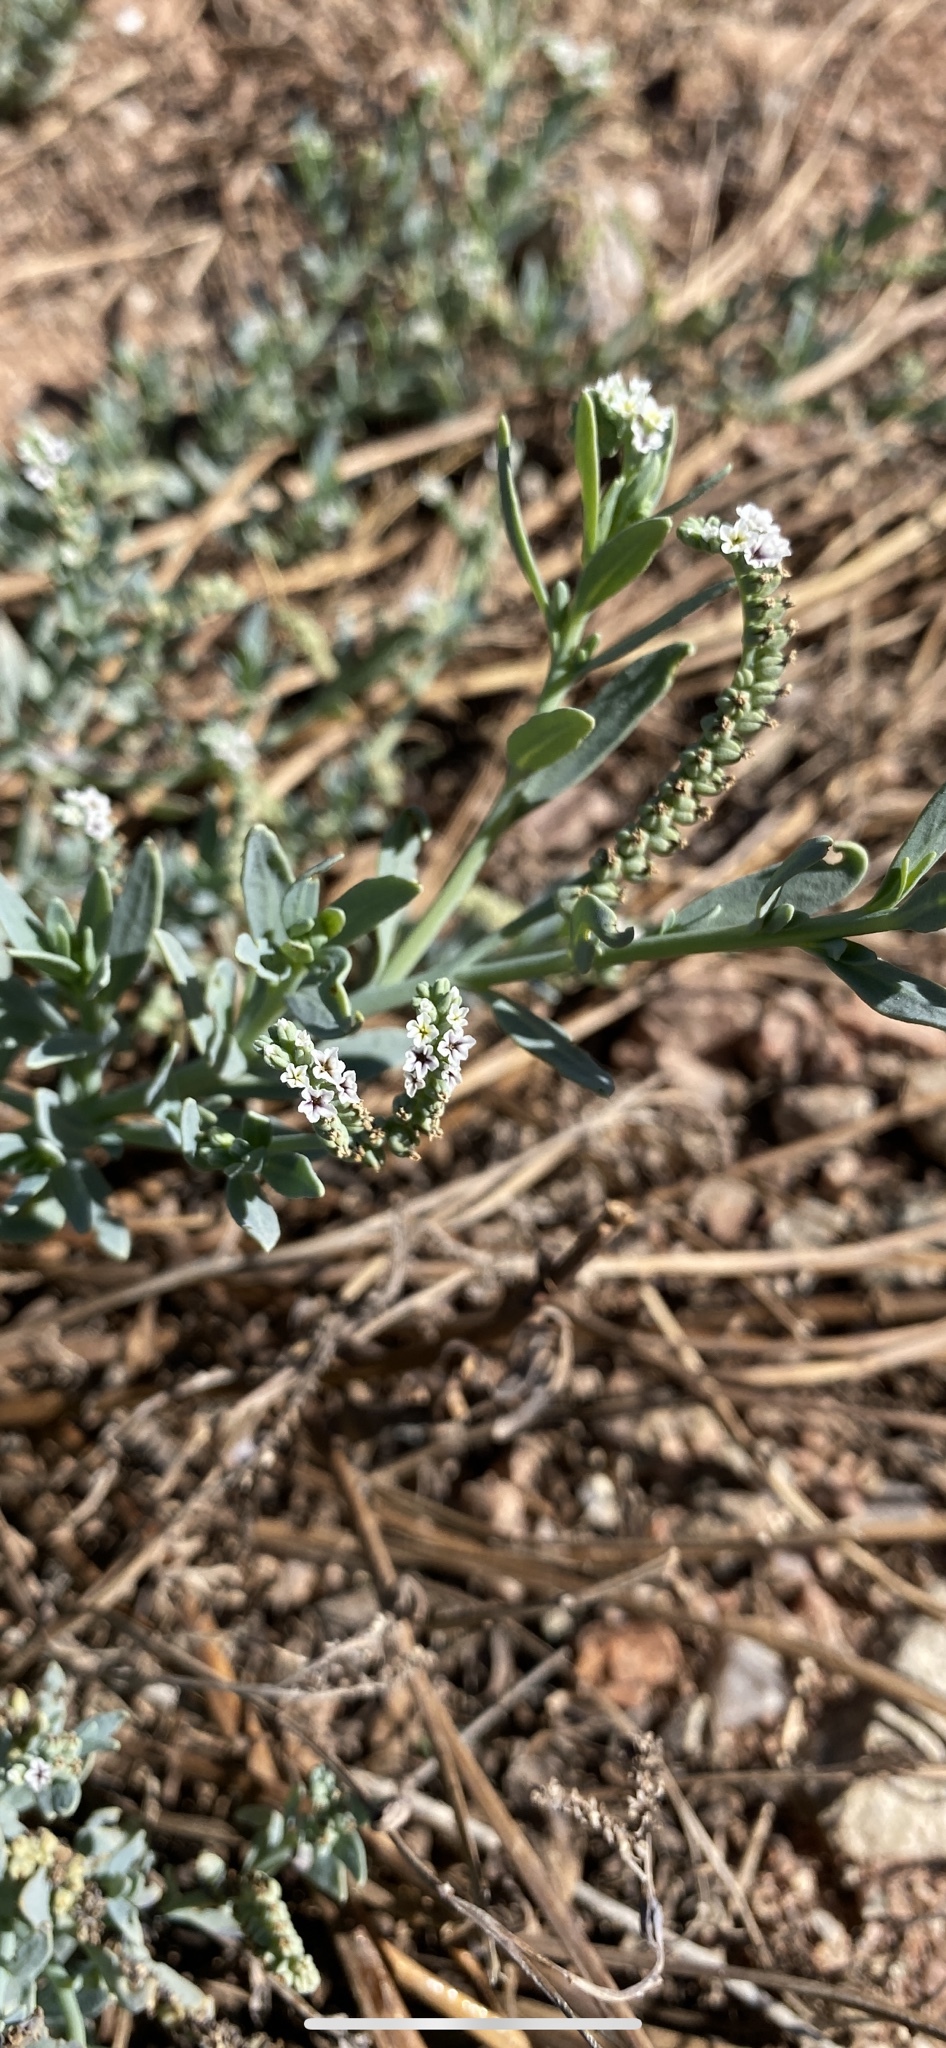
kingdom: Plantae
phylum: Tracheophyta
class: Magnoliopsida
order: Boraginales
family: Heliotropiaceae
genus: Heliotropium
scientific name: Heliotropium curassavicum
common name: Seaside heliotrope
